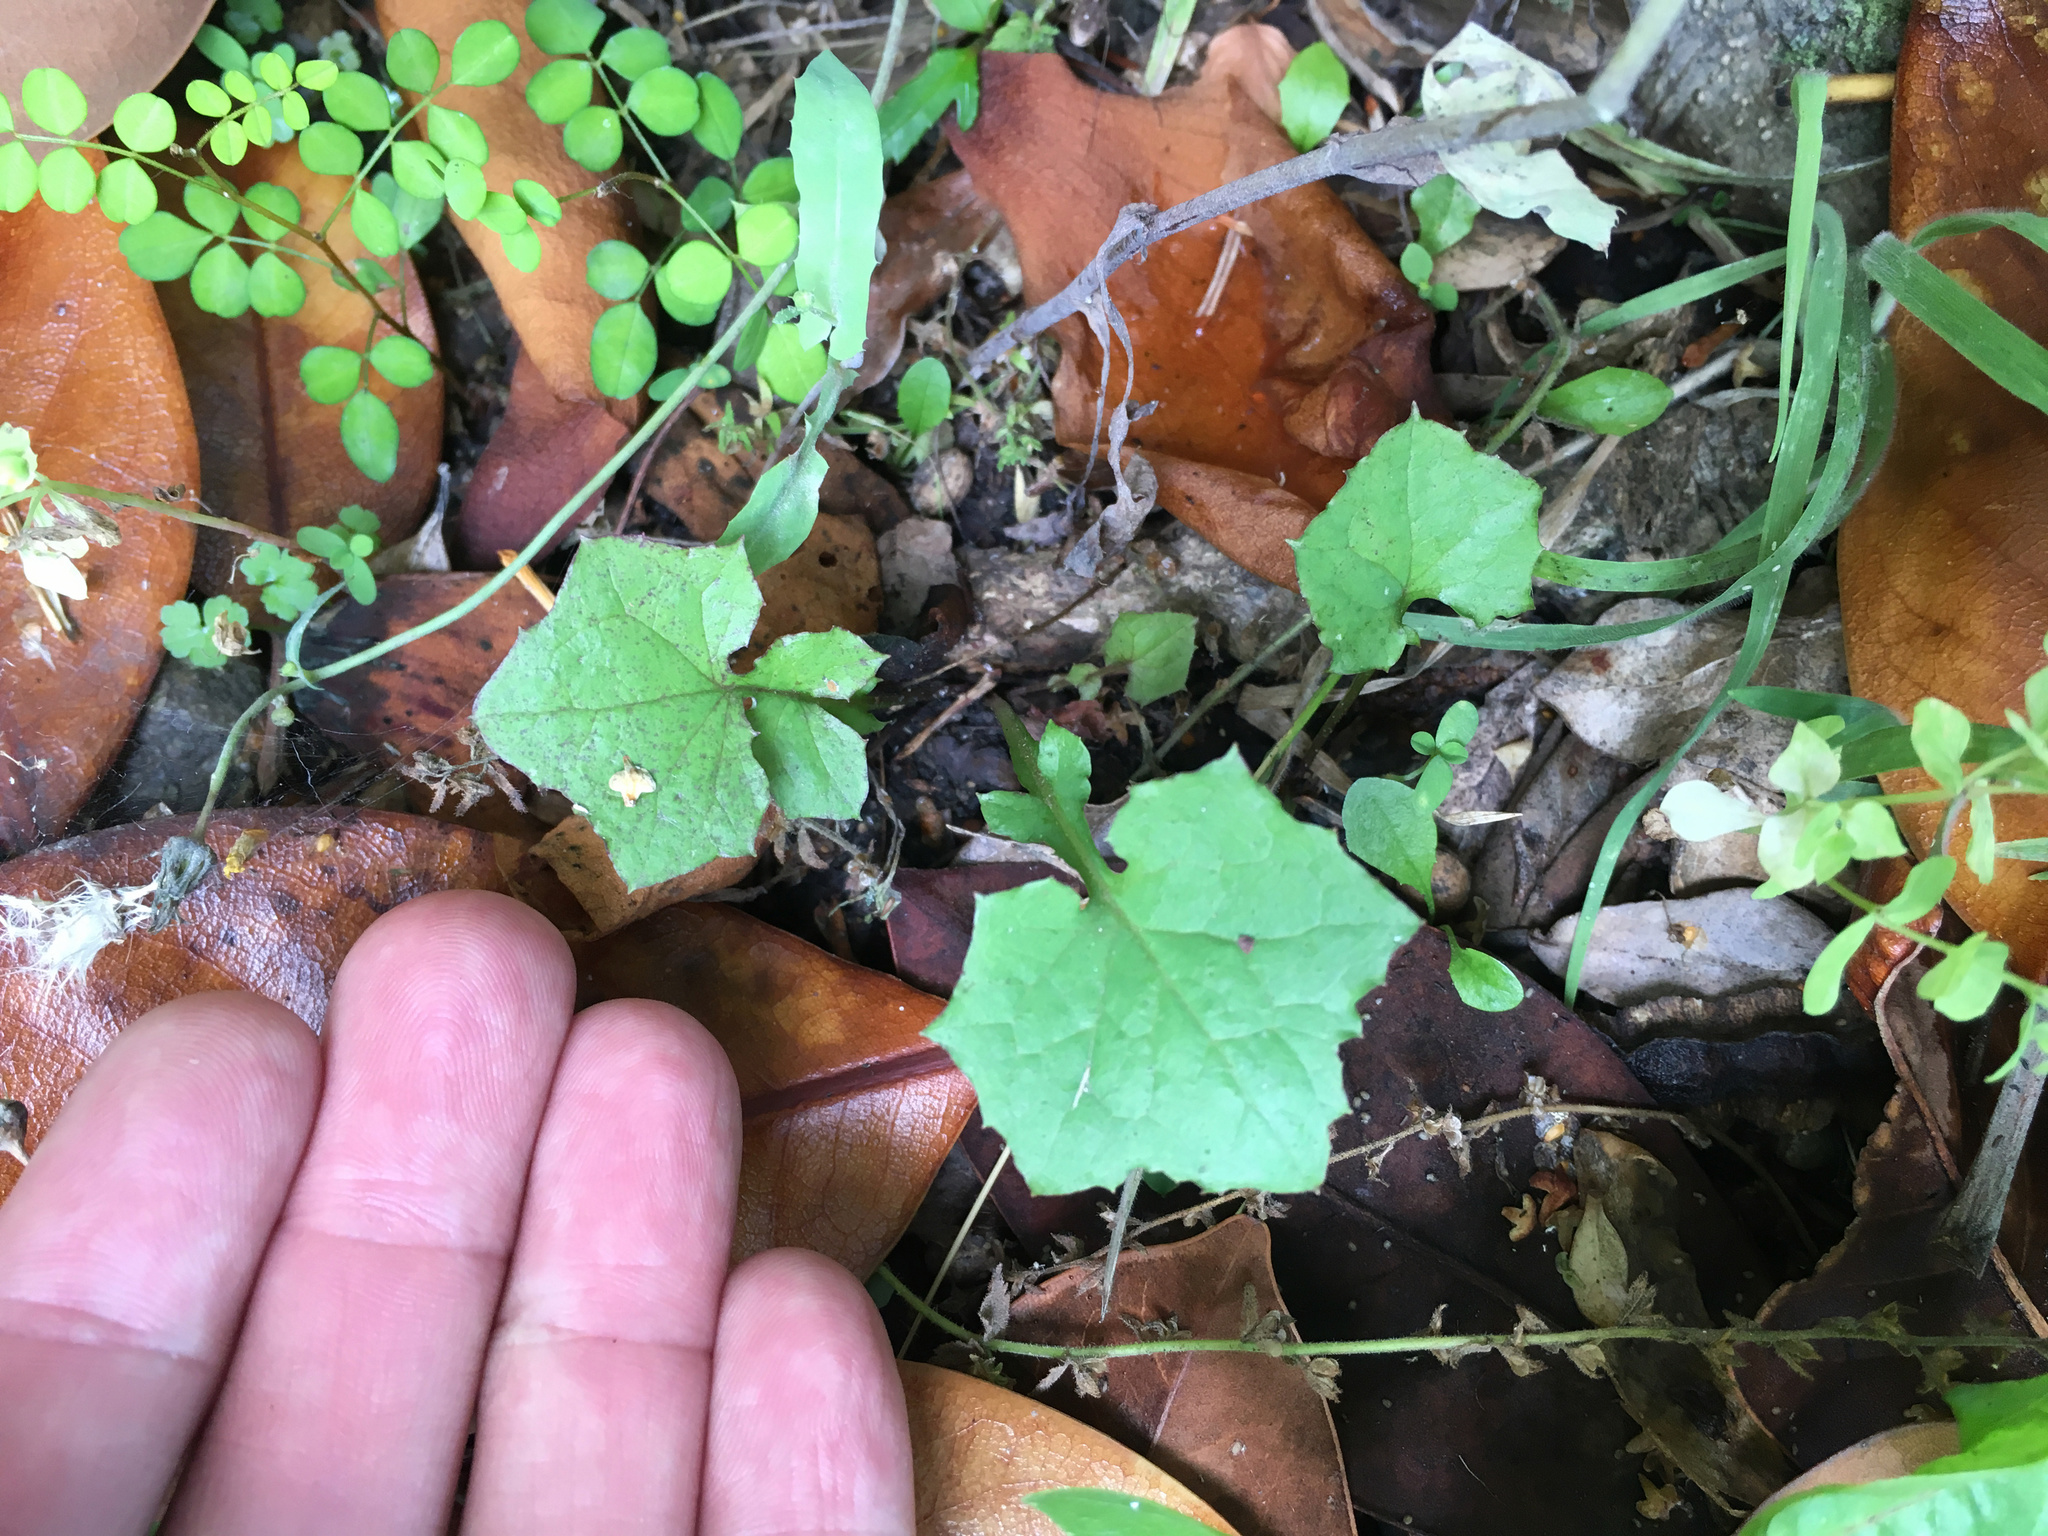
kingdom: Plantae
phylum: Tracheophyta
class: Magnoliopsida
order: Asterales
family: Asteraceae
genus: Mycelis
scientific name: Mycelis muralis
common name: Wall lettuce
